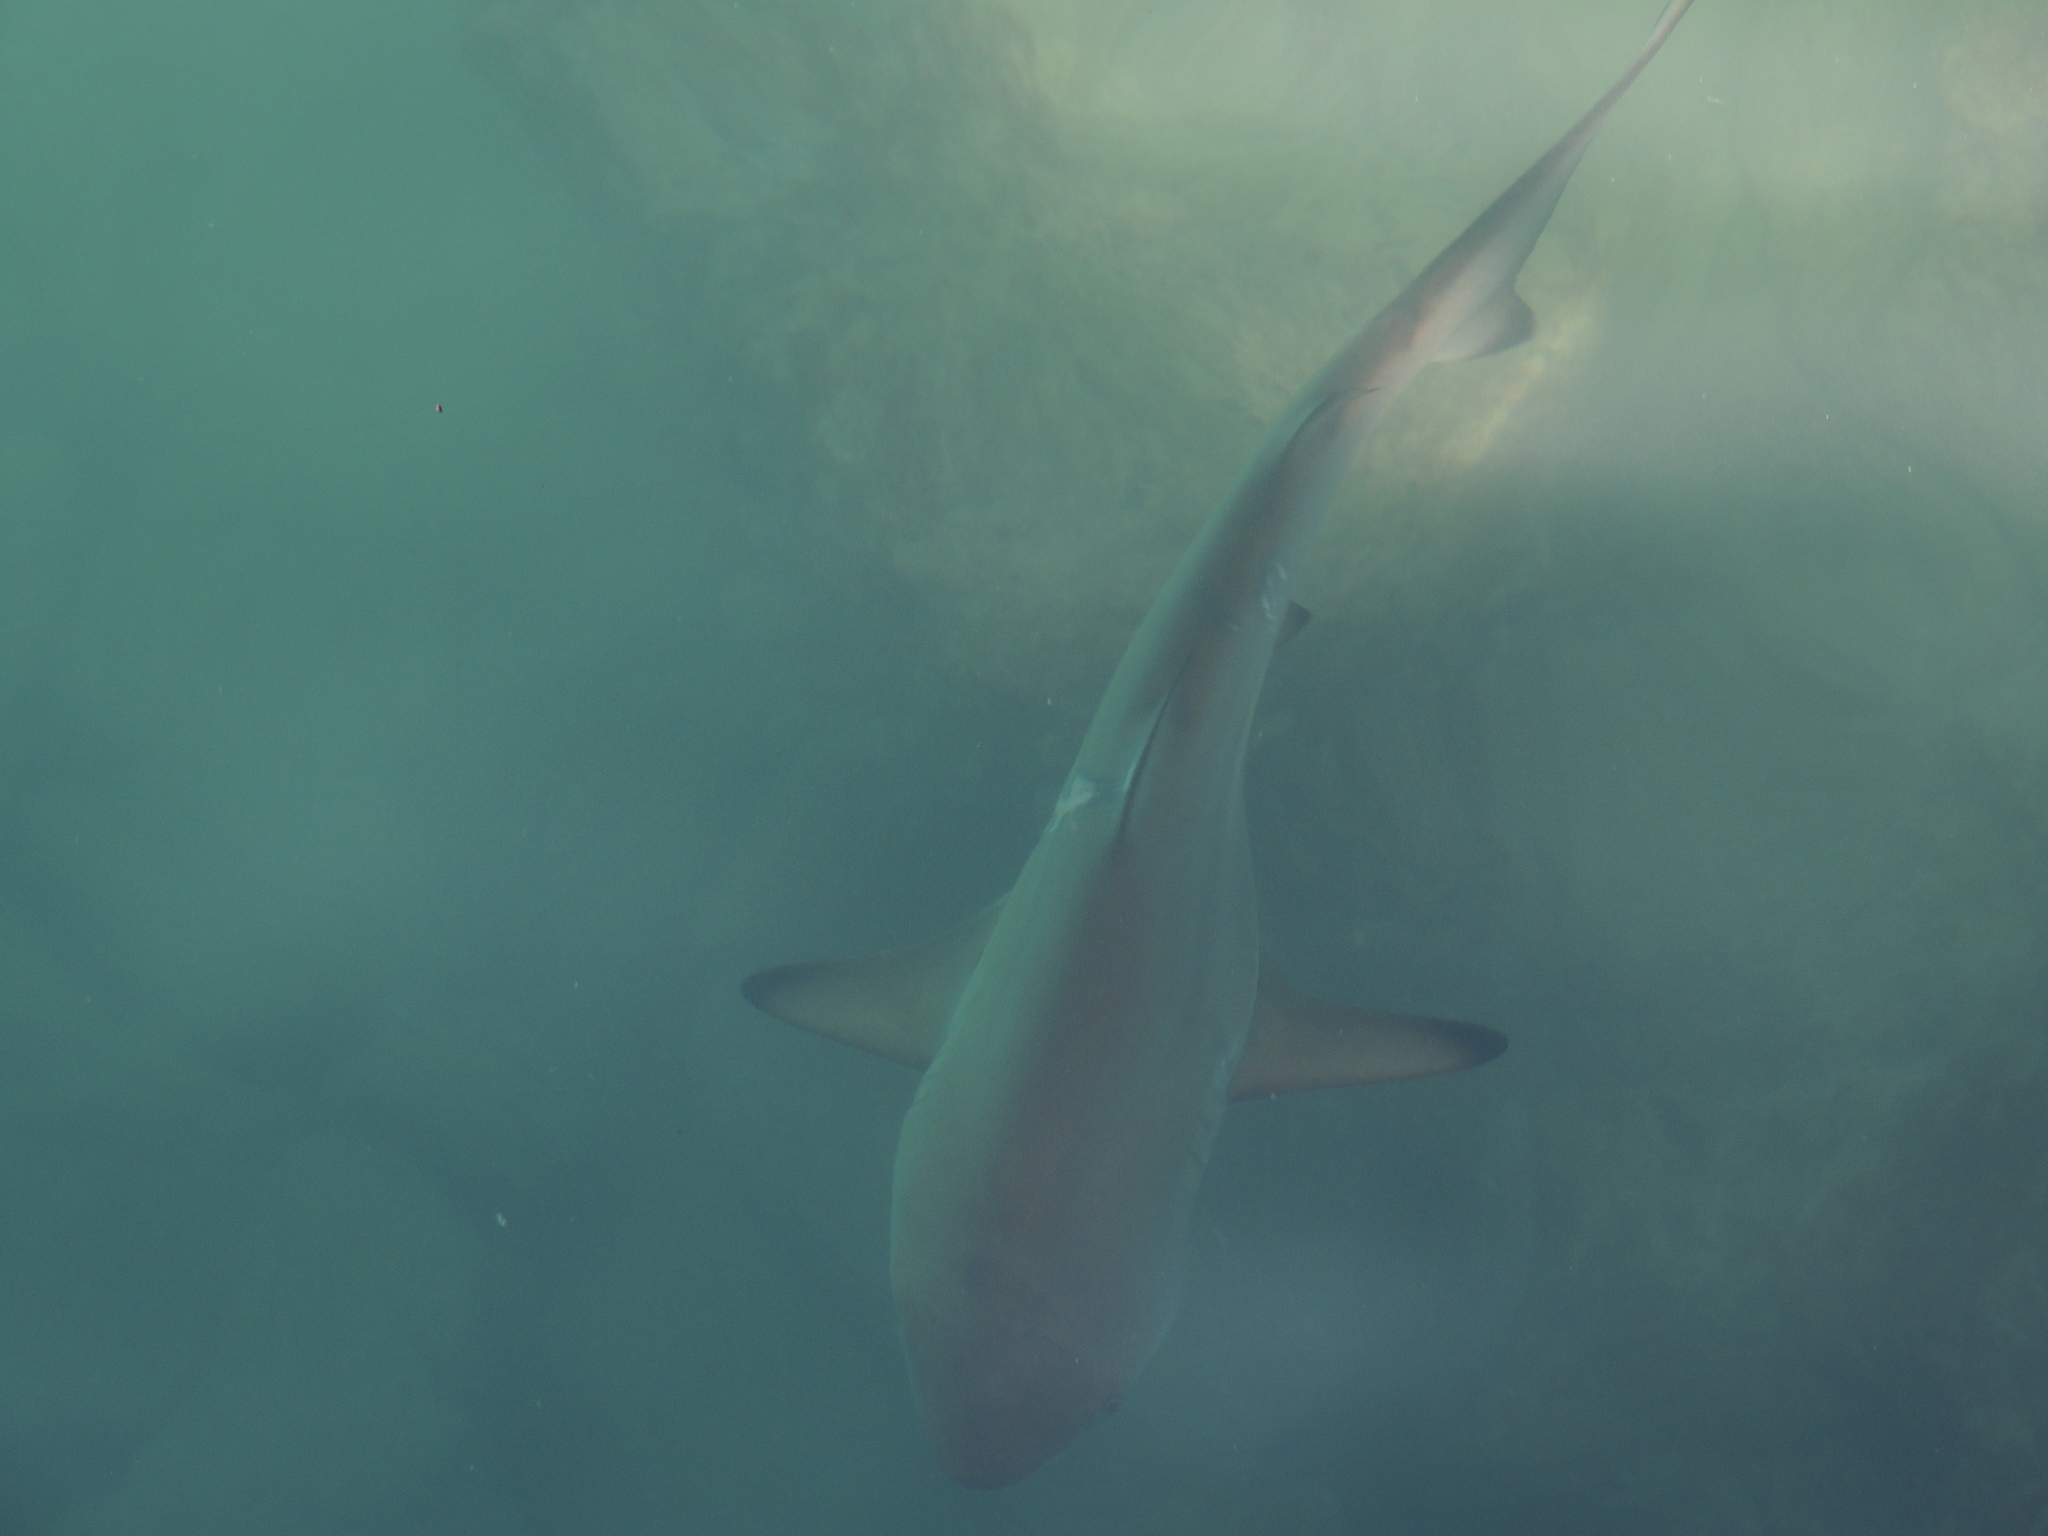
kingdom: Animalia
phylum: Chordata
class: Elasmobranchii
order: Carcharhiniformes
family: Carcharhinidae
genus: Carcharhinus
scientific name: Carcharhinus limbatus
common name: Blacktip shark
